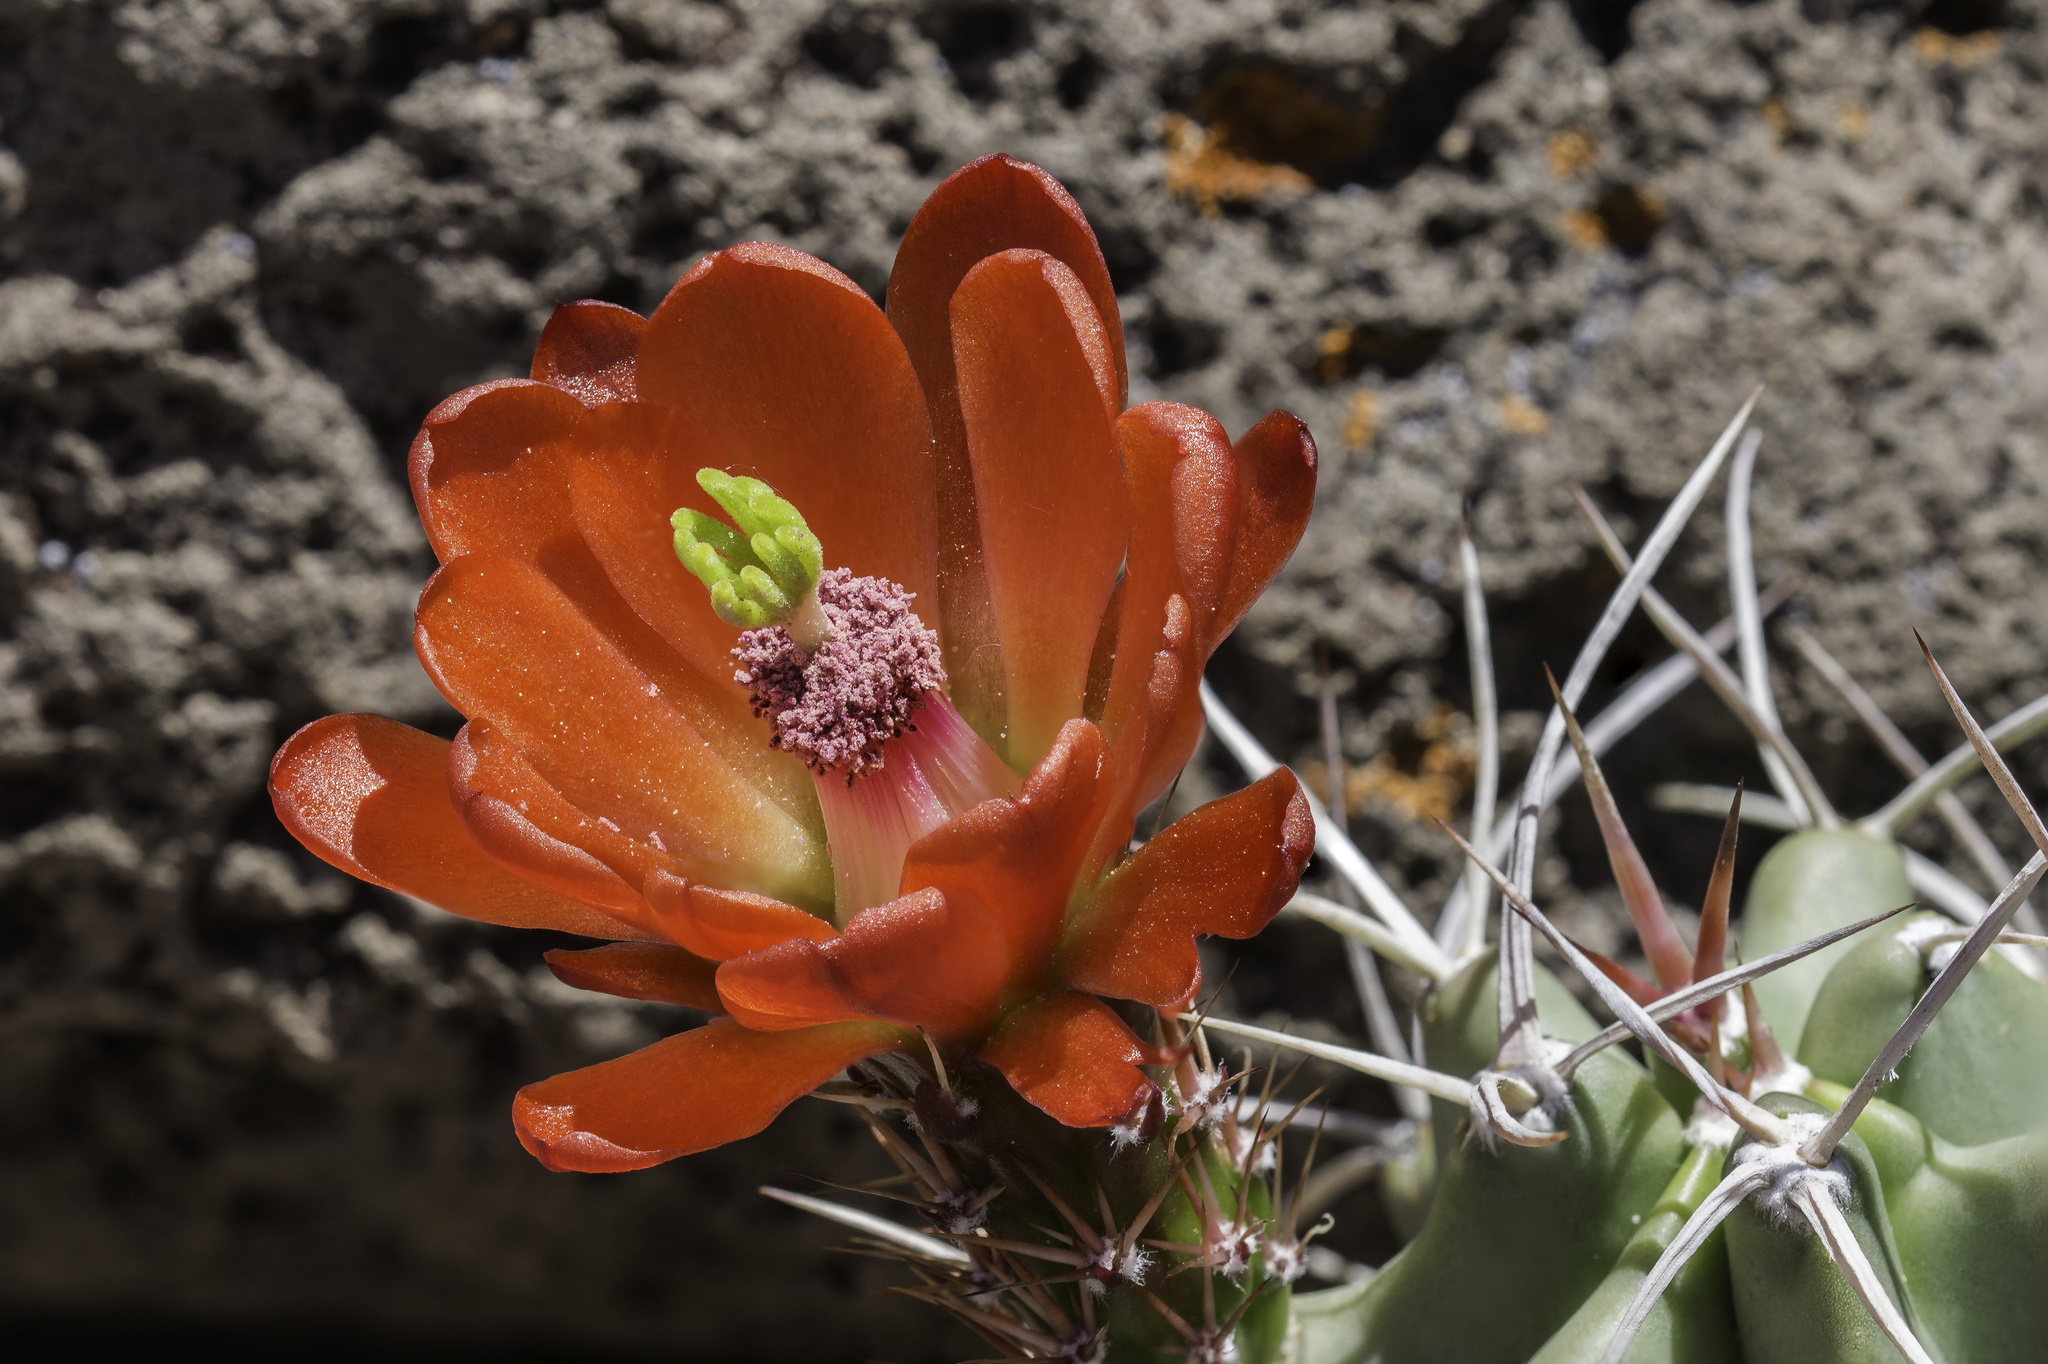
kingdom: Plantae
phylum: Tracheophyta
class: Magnoliopsida
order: Caryophyllales
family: Cactaceae
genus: Echinocereus
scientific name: Echinocereus triglochidiatus
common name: Claretcup hedgehog
